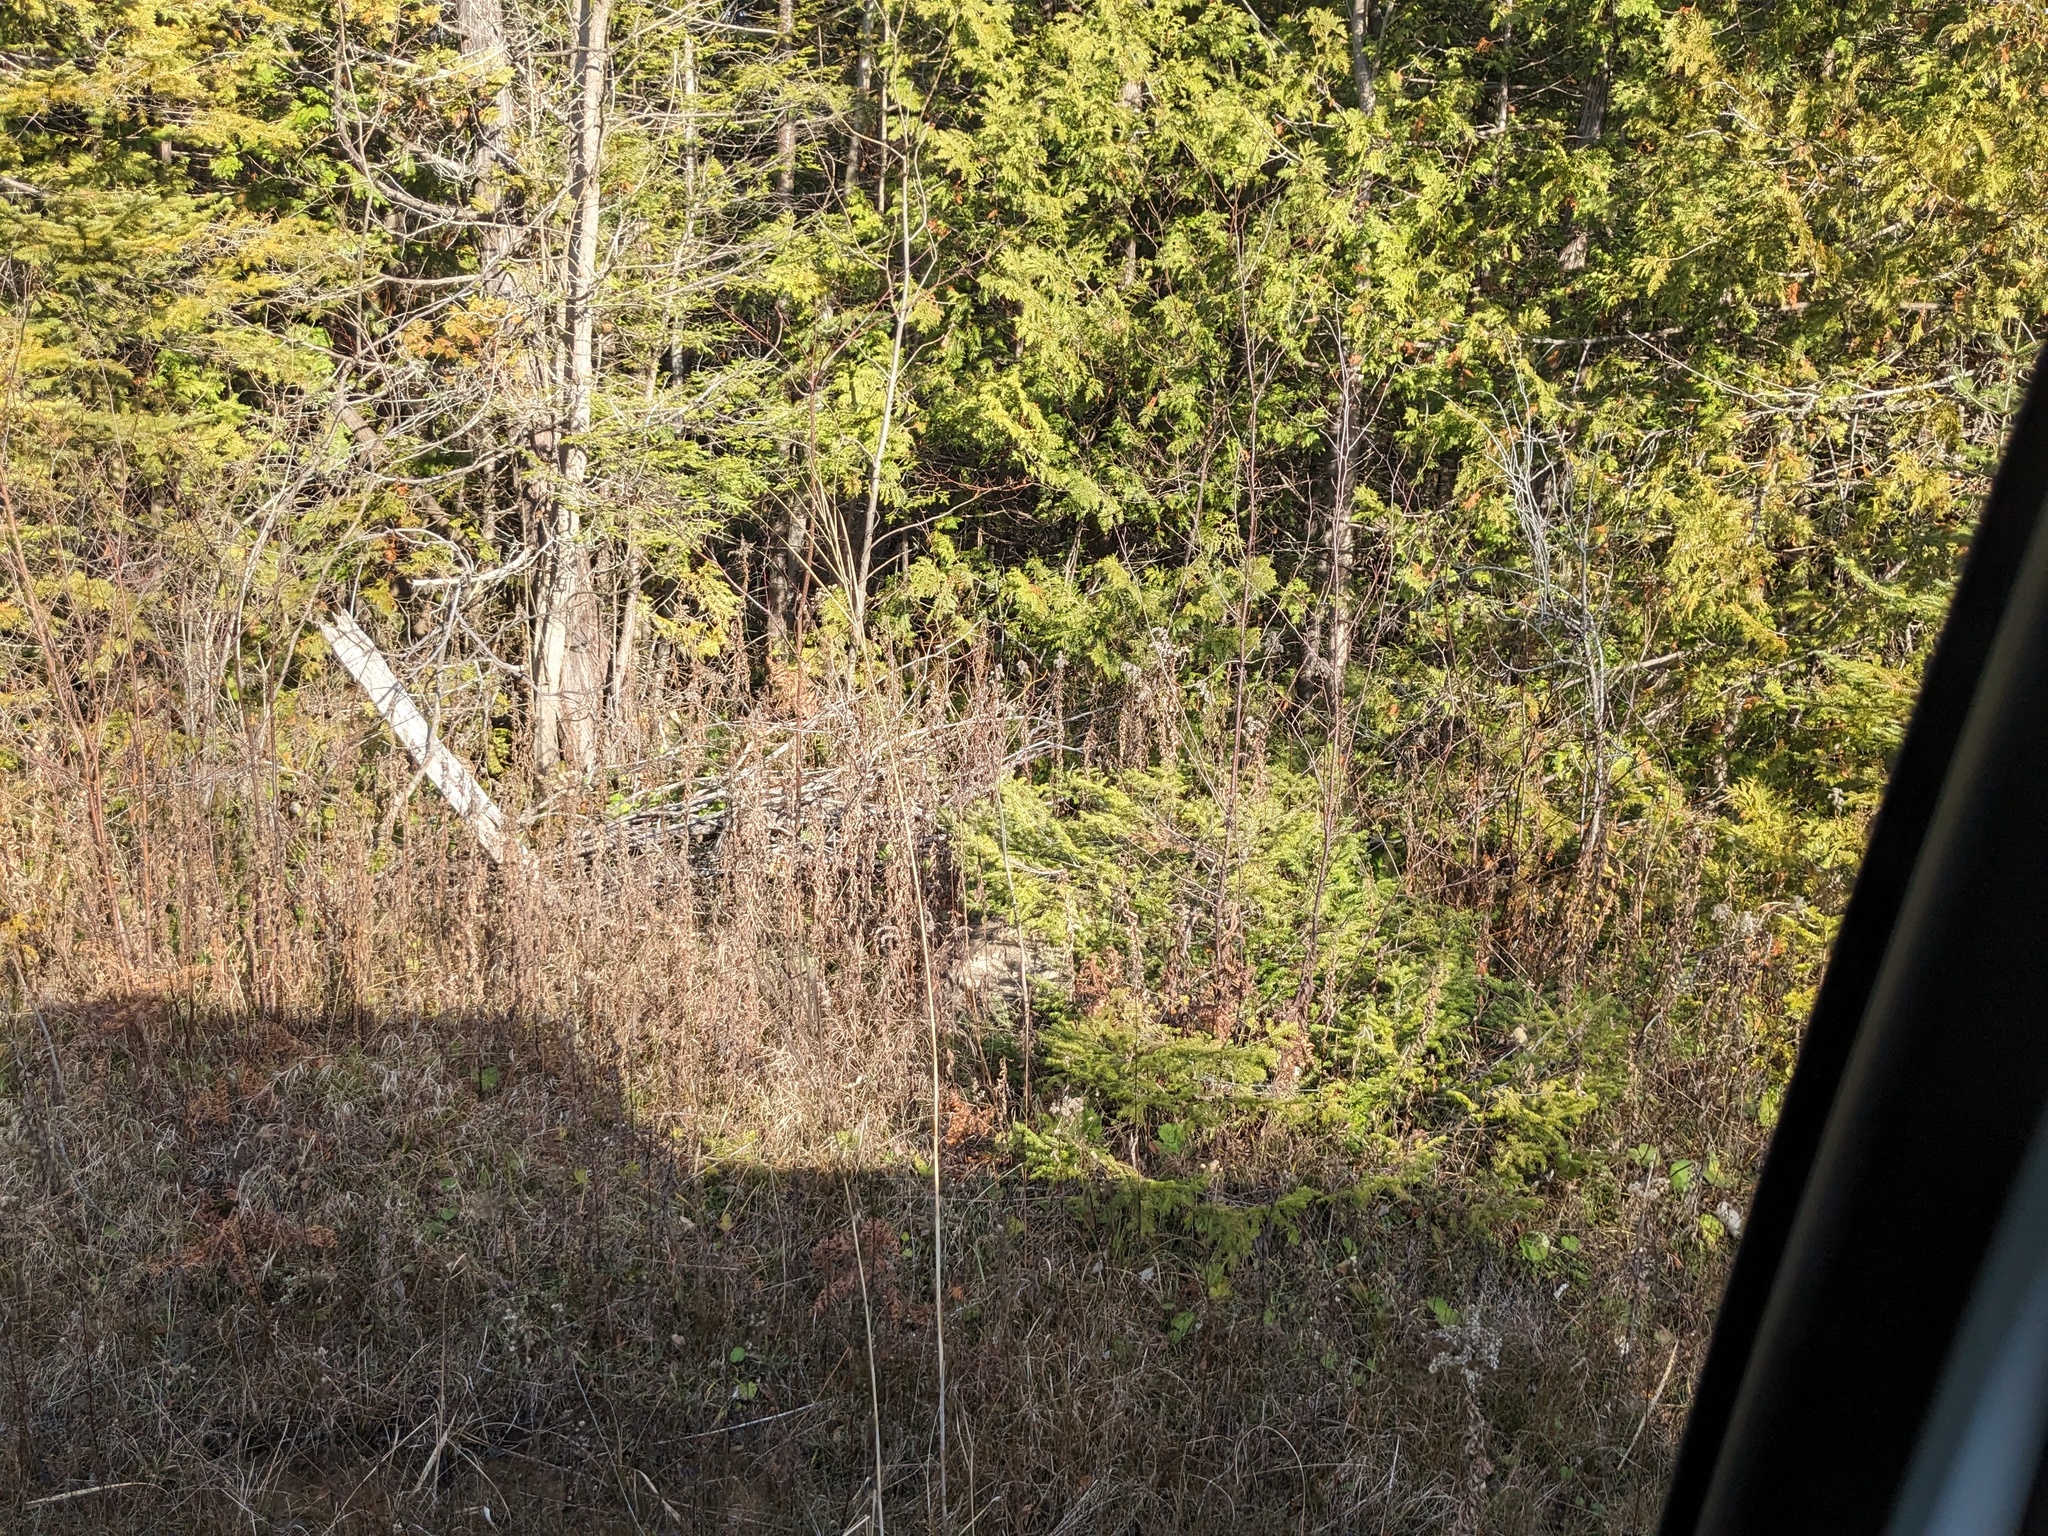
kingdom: Plantae
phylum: Tracheophyta
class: Liliopsida
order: Poales
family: Poaceae
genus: Phragmites
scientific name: Phragmites australis
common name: Common reed
